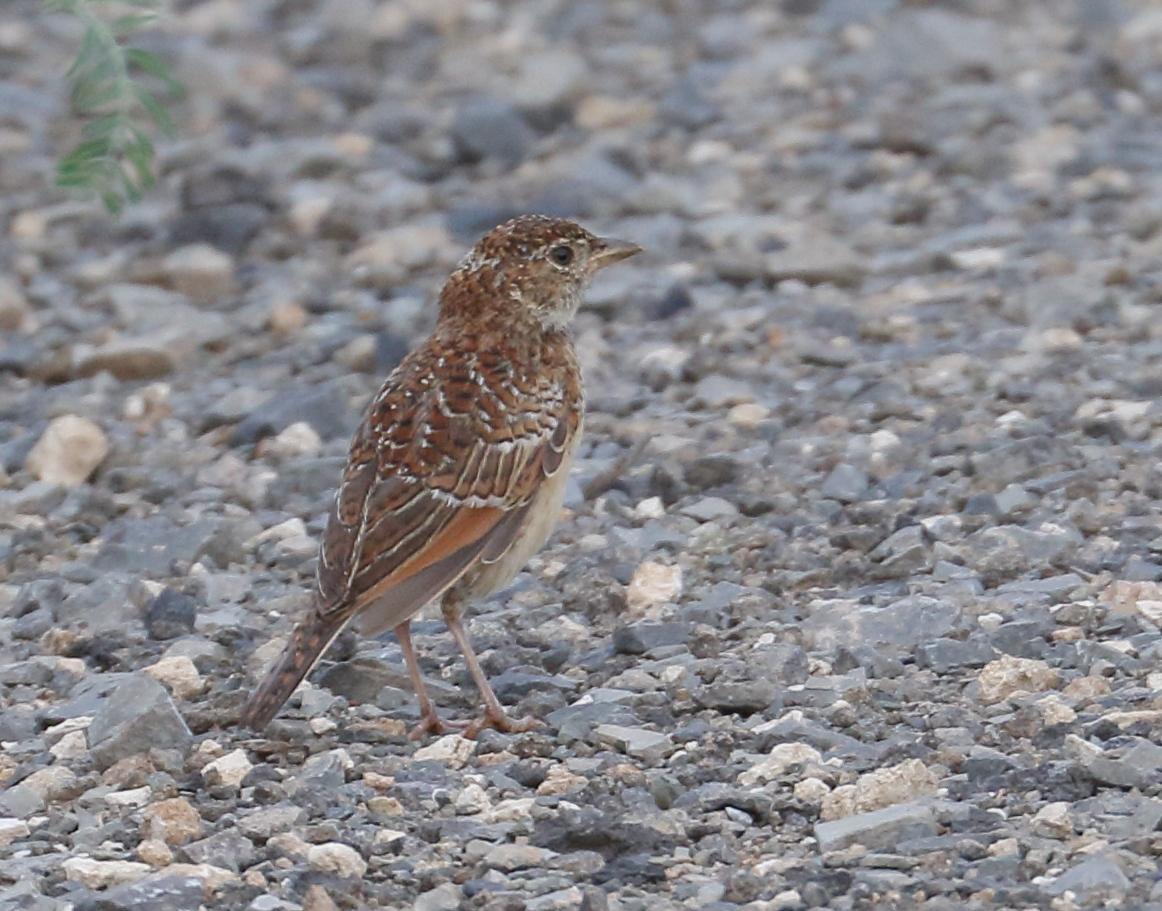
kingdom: Animalia
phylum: Chordata
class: Aves
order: Passeriformes
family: Alaudidae
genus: Mirafra
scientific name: Mirafra fasciolata
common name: Eastern clapper lark
